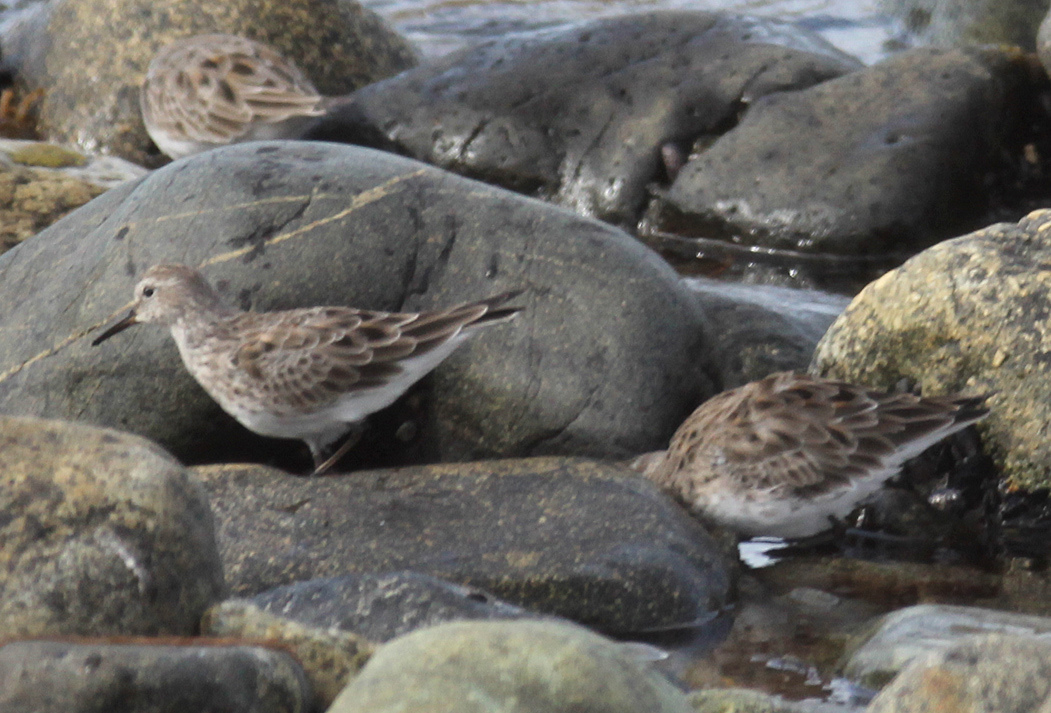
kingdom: Animalia
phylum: Chordata
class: Aves
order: Charadriiformes
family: Scolopacidae
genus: Calidris
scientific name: Calidris fuscicollis
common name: White-rumped sandpiper
